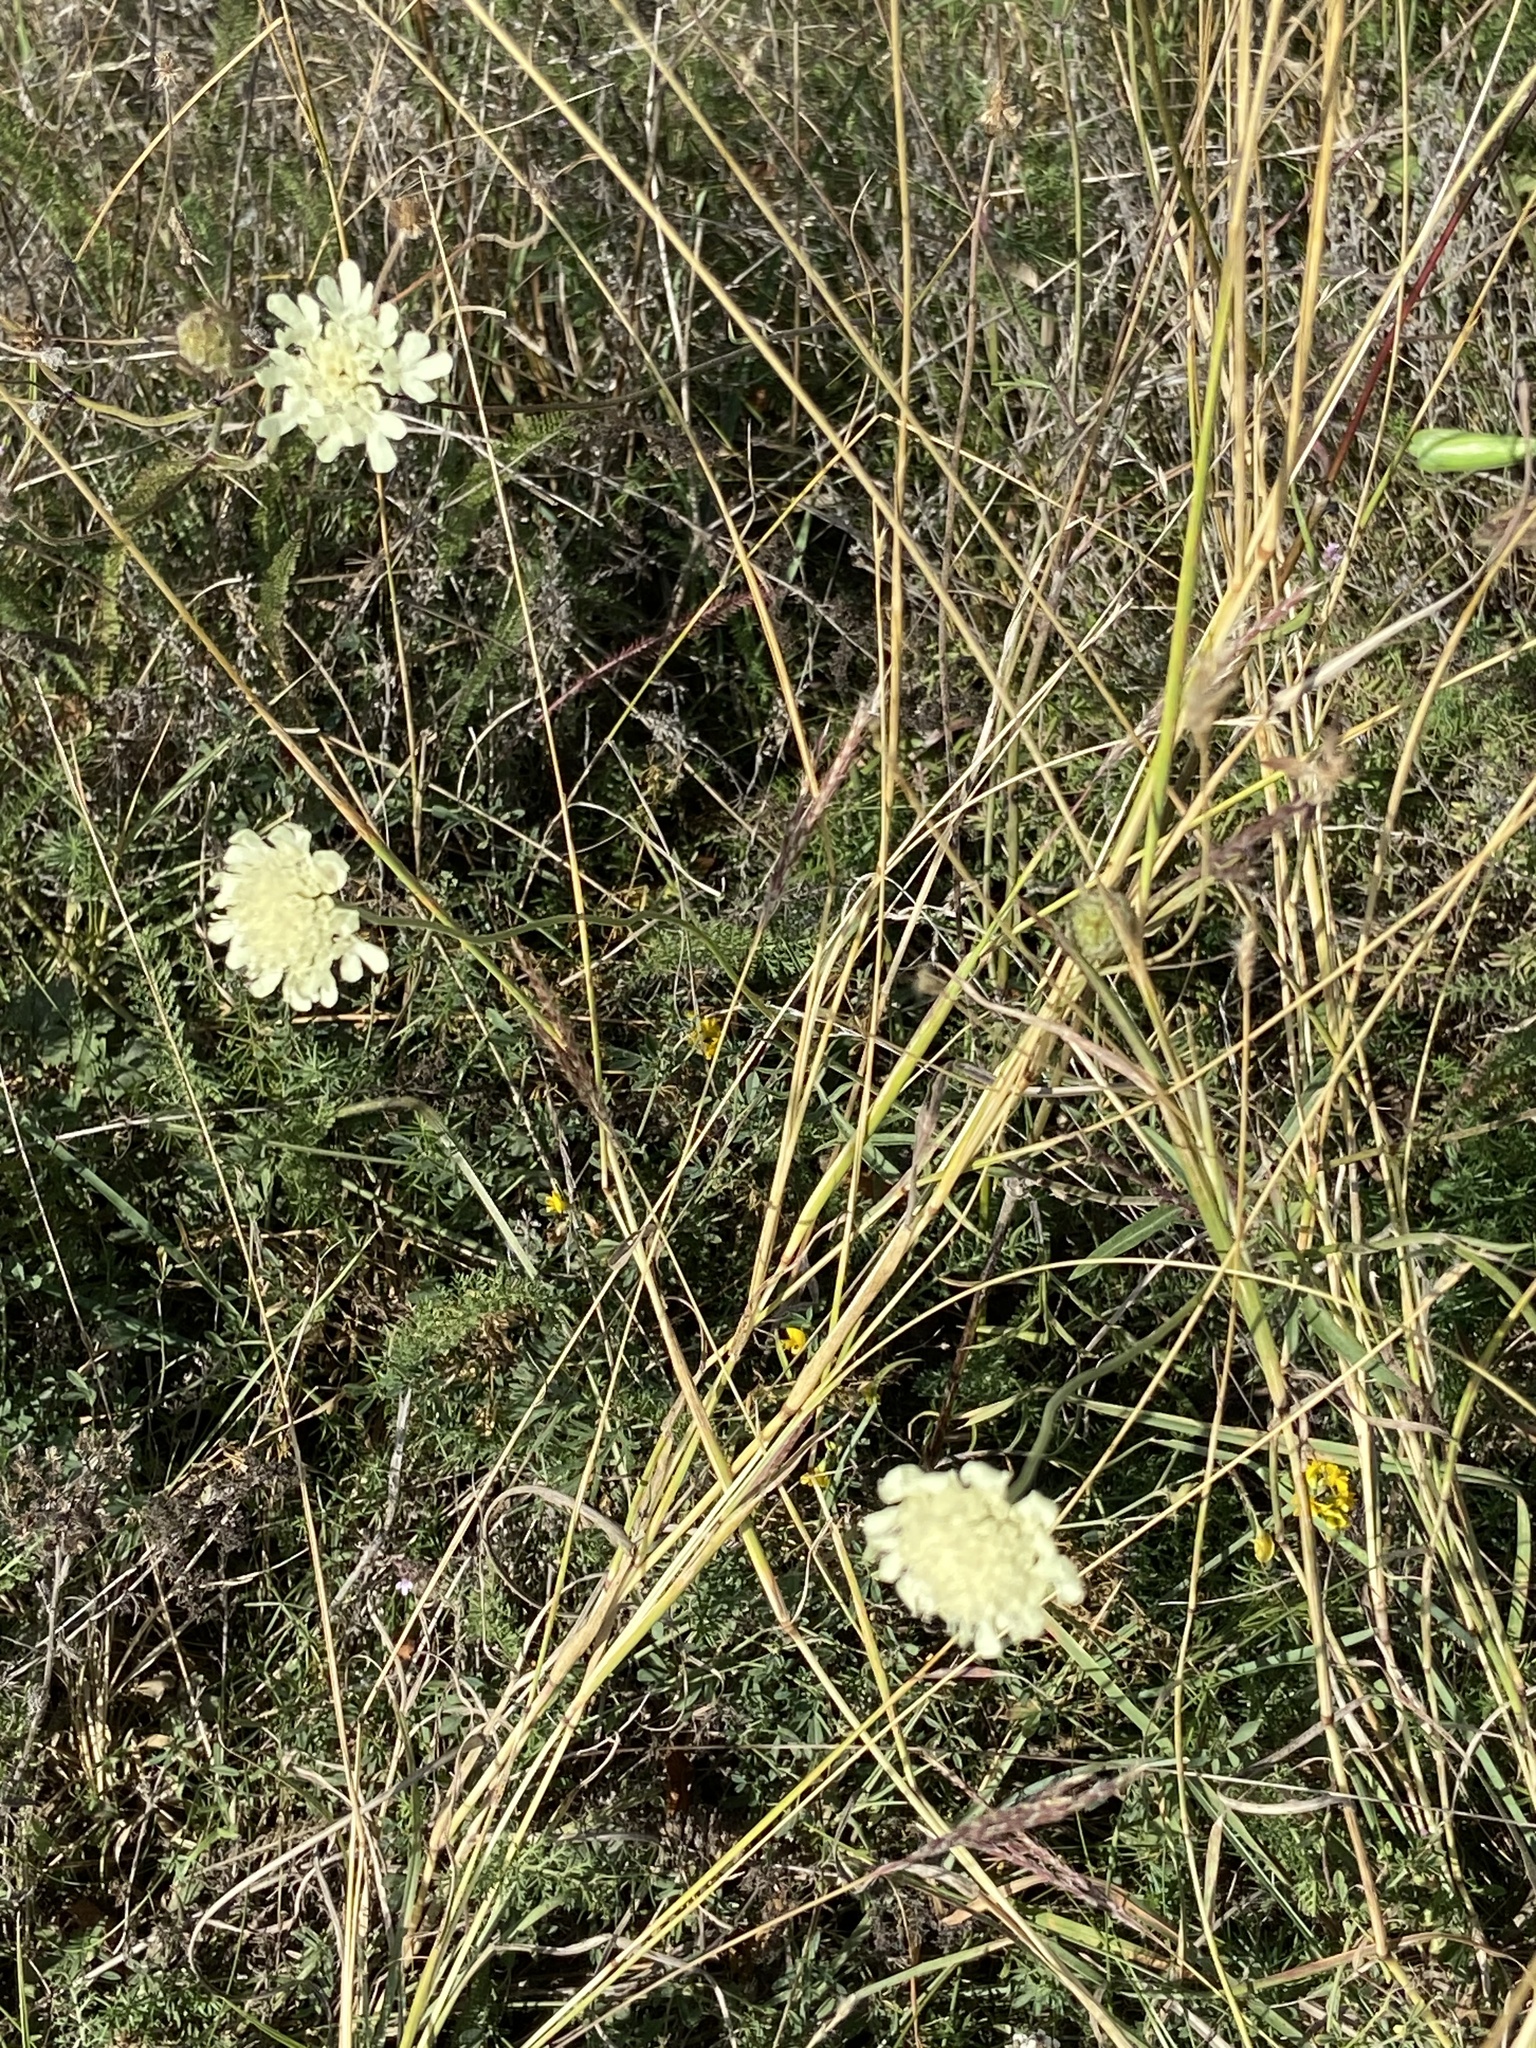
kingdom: Plantae
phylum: Tracheophyta
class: Magnoliopsida
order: Dipsacales
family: Caprifoliaceae
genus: Scabiosa
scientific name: Scabiosa ochroleuca
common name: Cream pincushions
